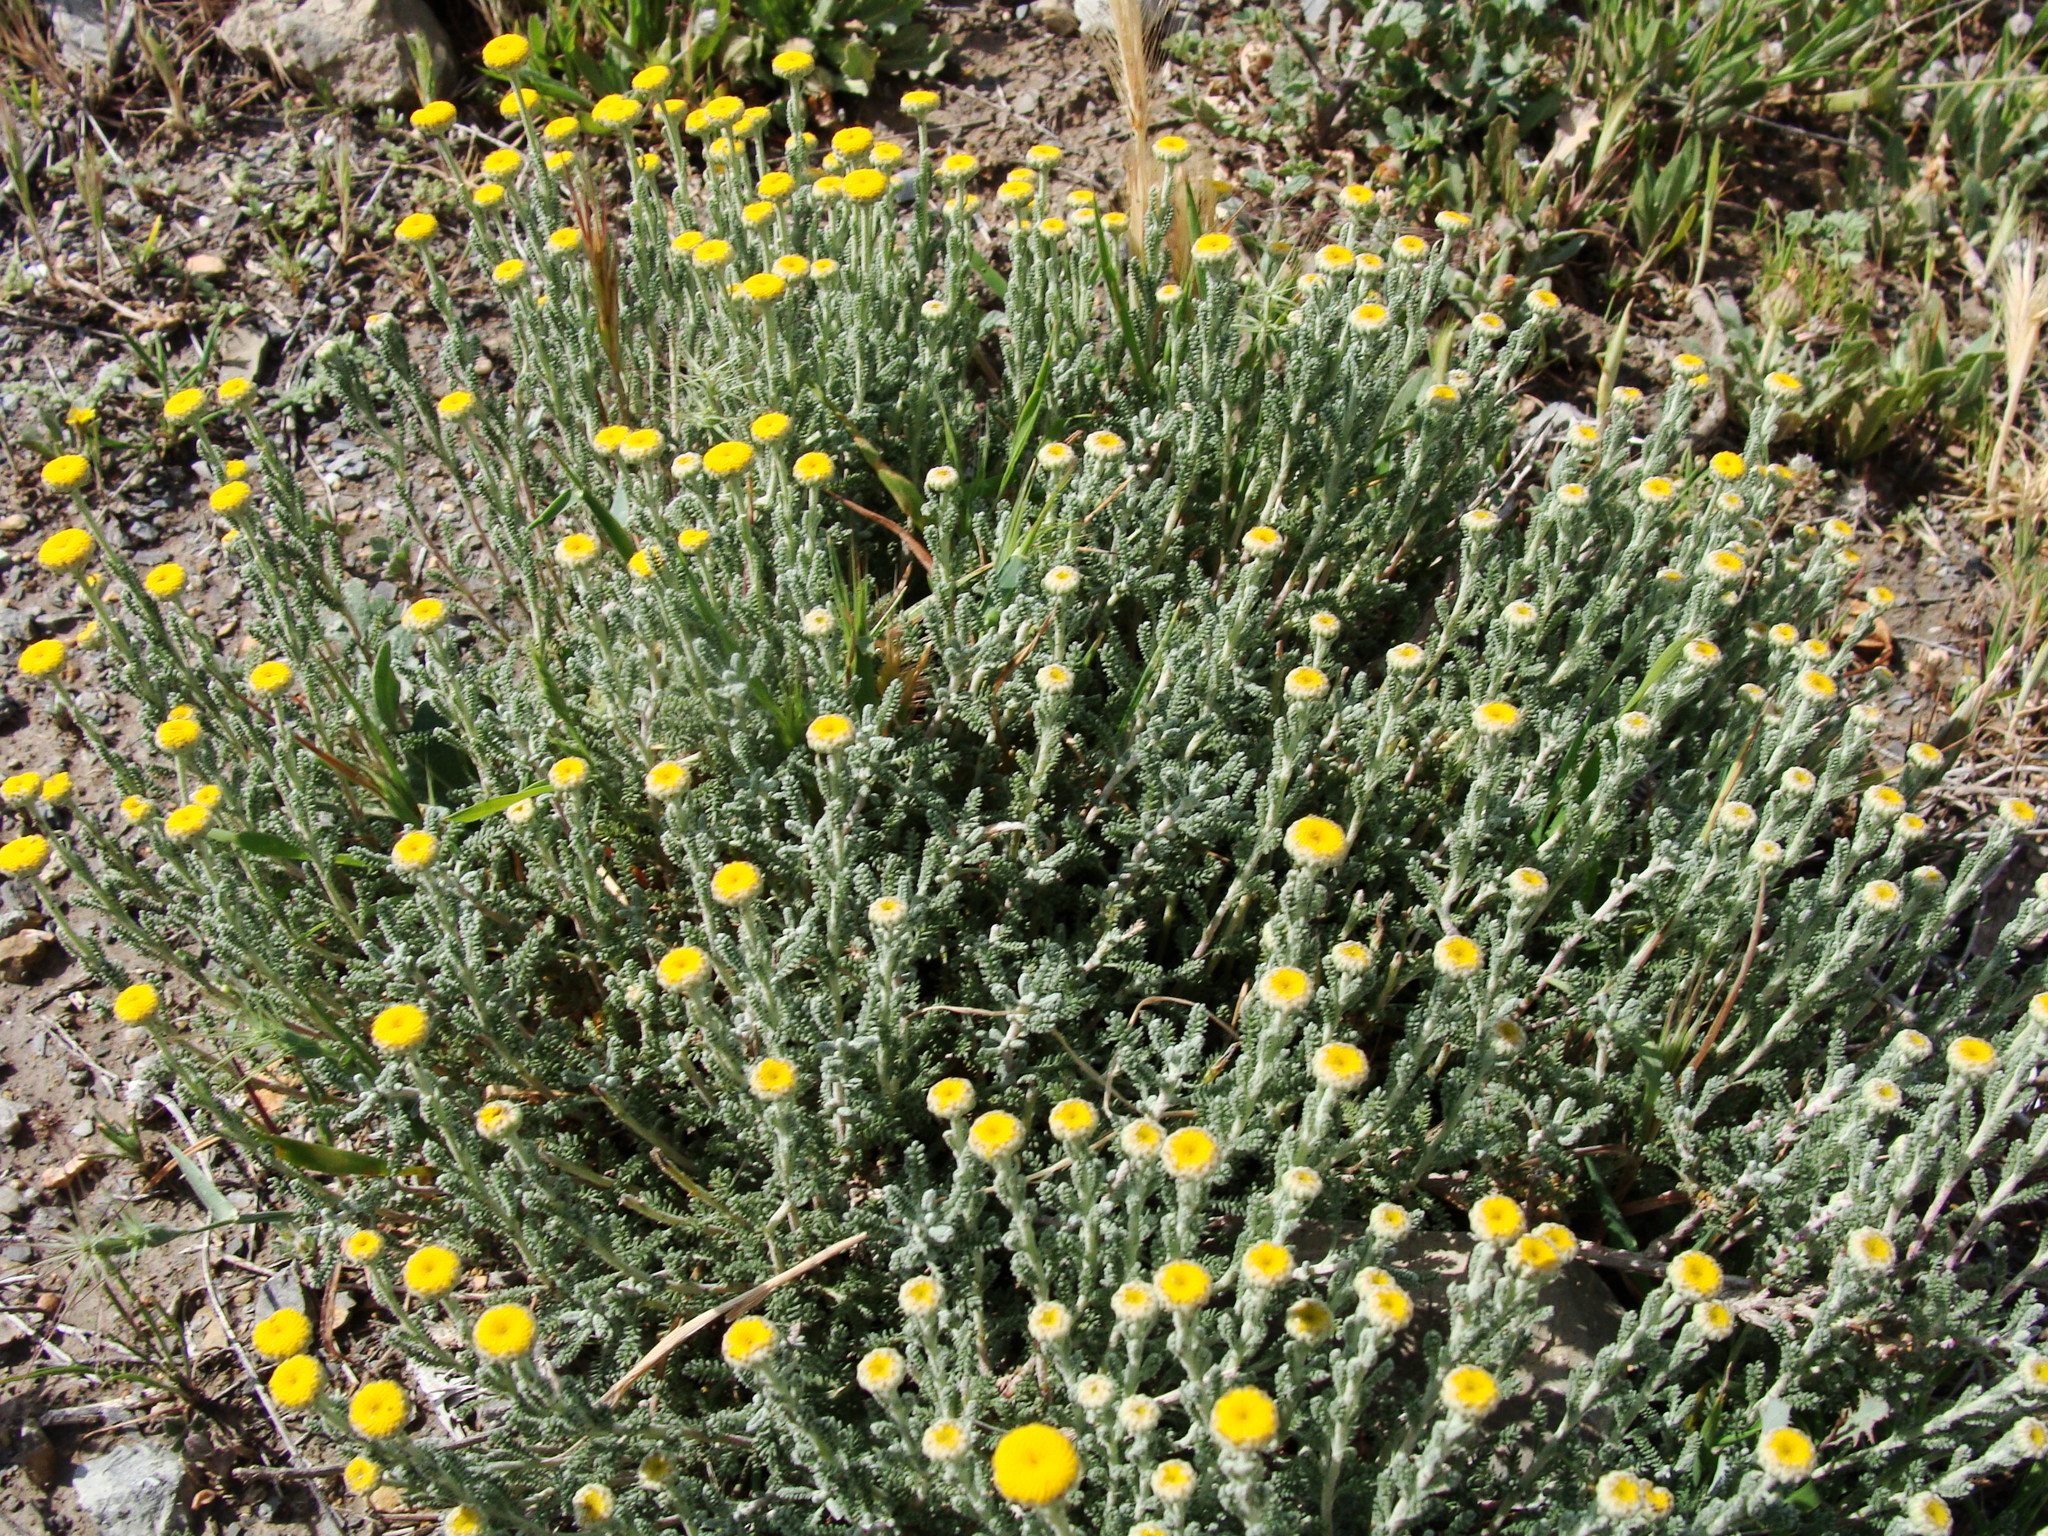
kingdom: Plantae
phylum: Tracheophyta
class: Magnoliopsida
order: Asterales
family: Asteraceae
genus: Santolina
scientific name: Santolina africana
